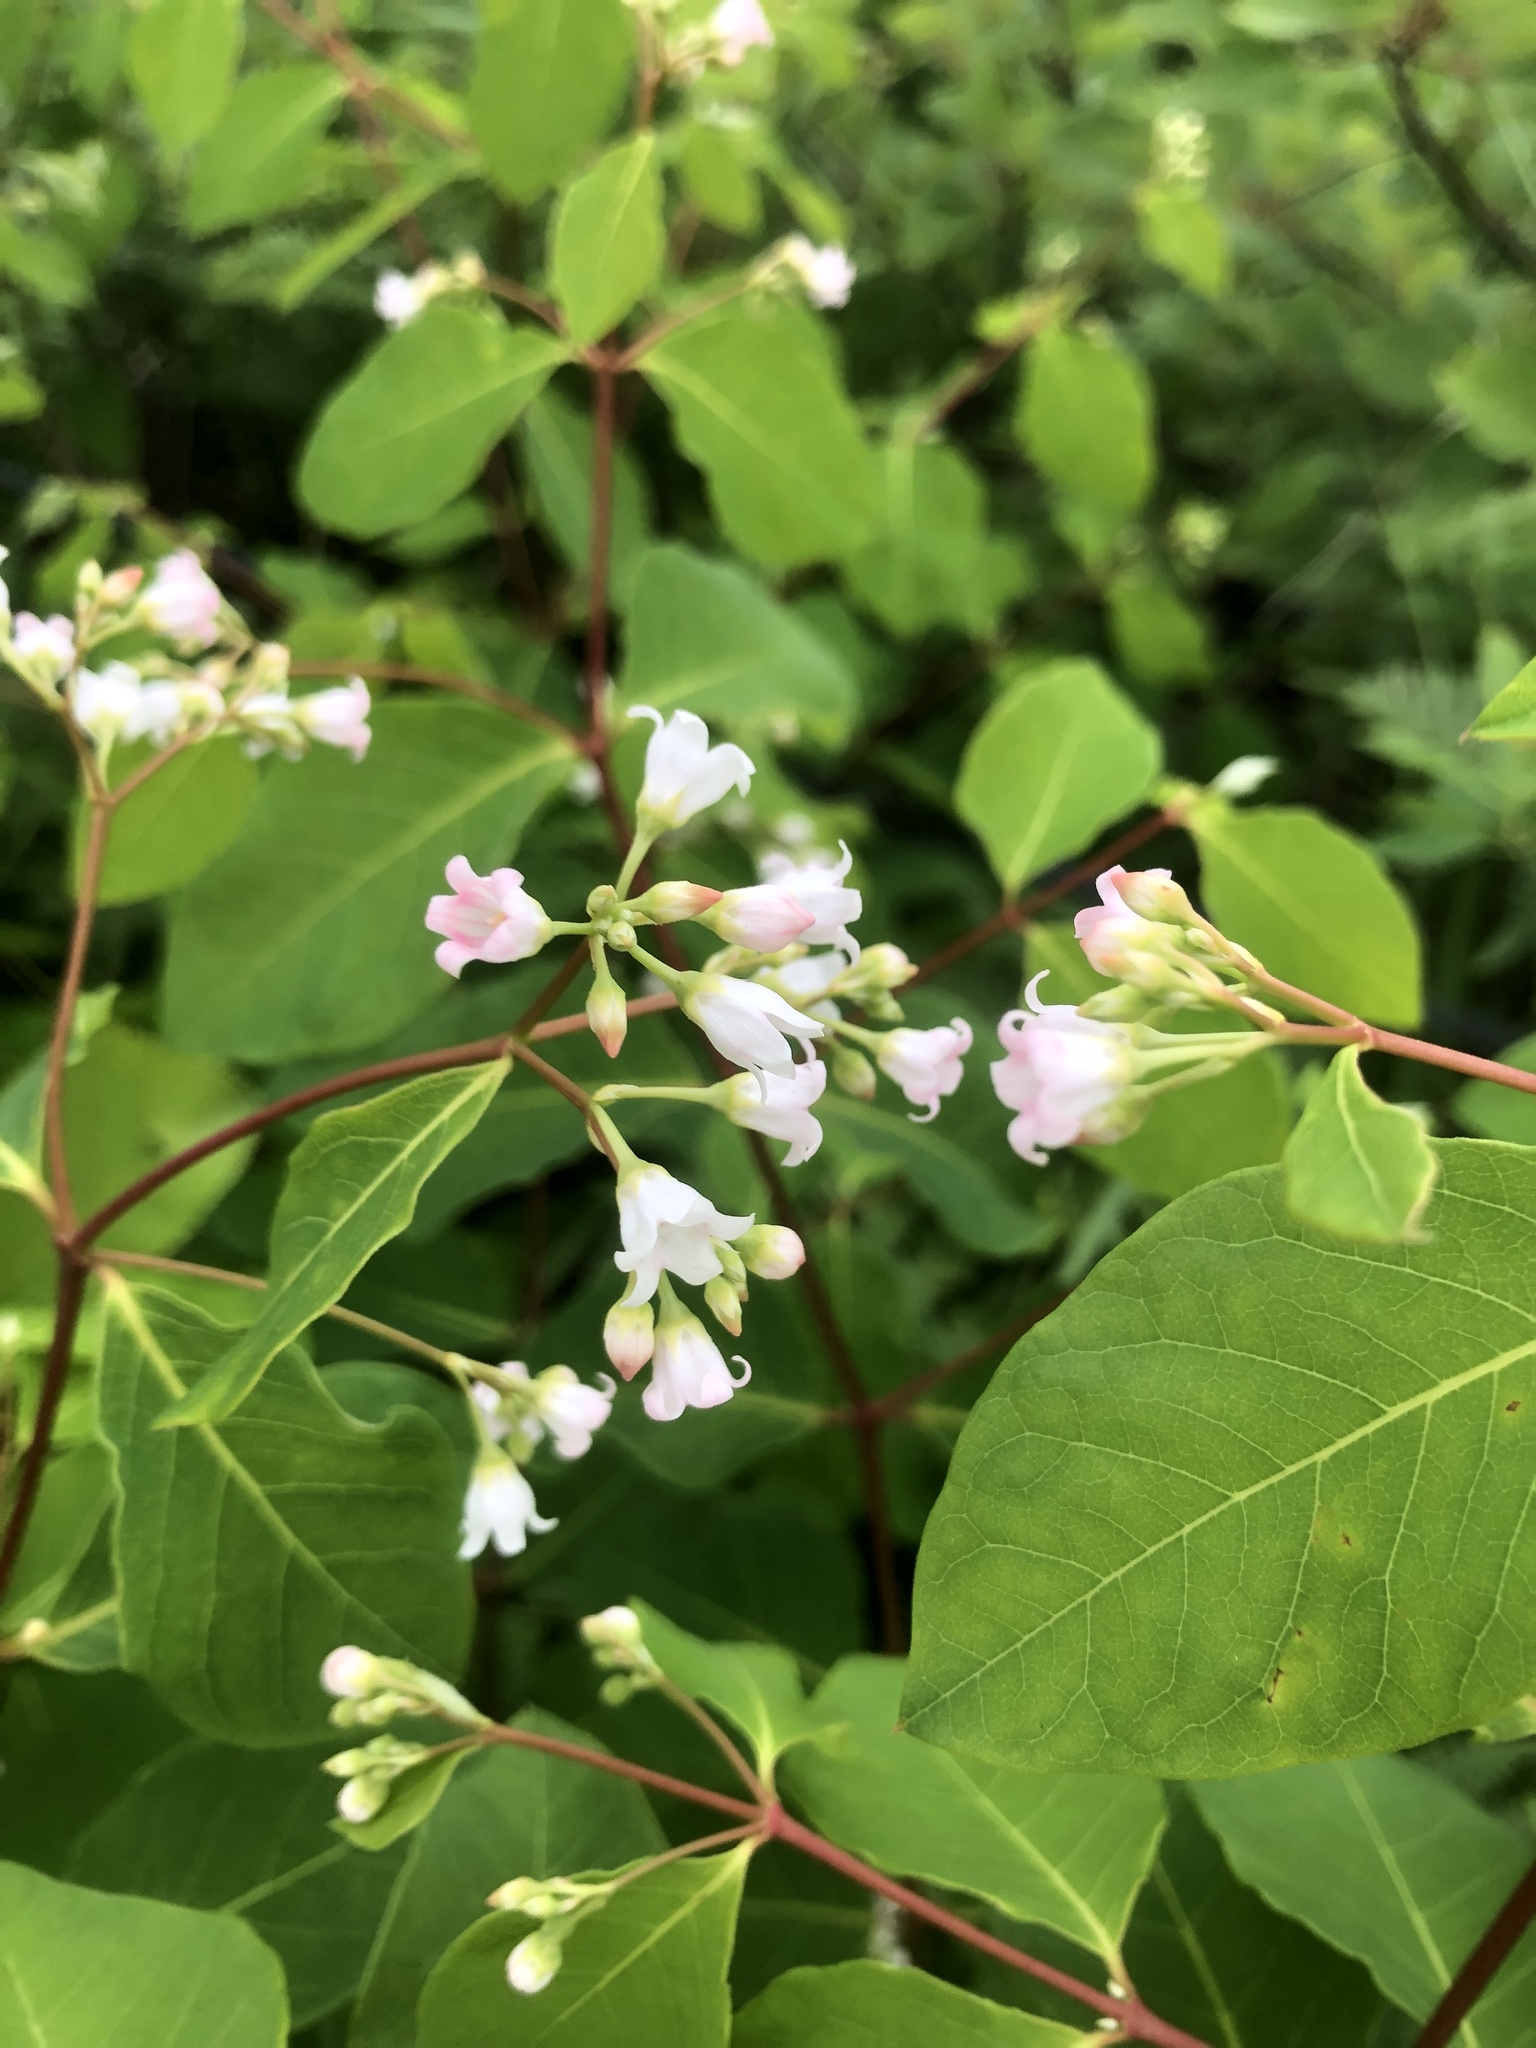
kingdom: Plantae
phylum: Tracheophyta
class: Magnoliopsida
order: Gentianales
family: Apocynaceae
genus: Apocynum
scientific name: Apocynum androsaemifolium
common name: Spreading dogbane
